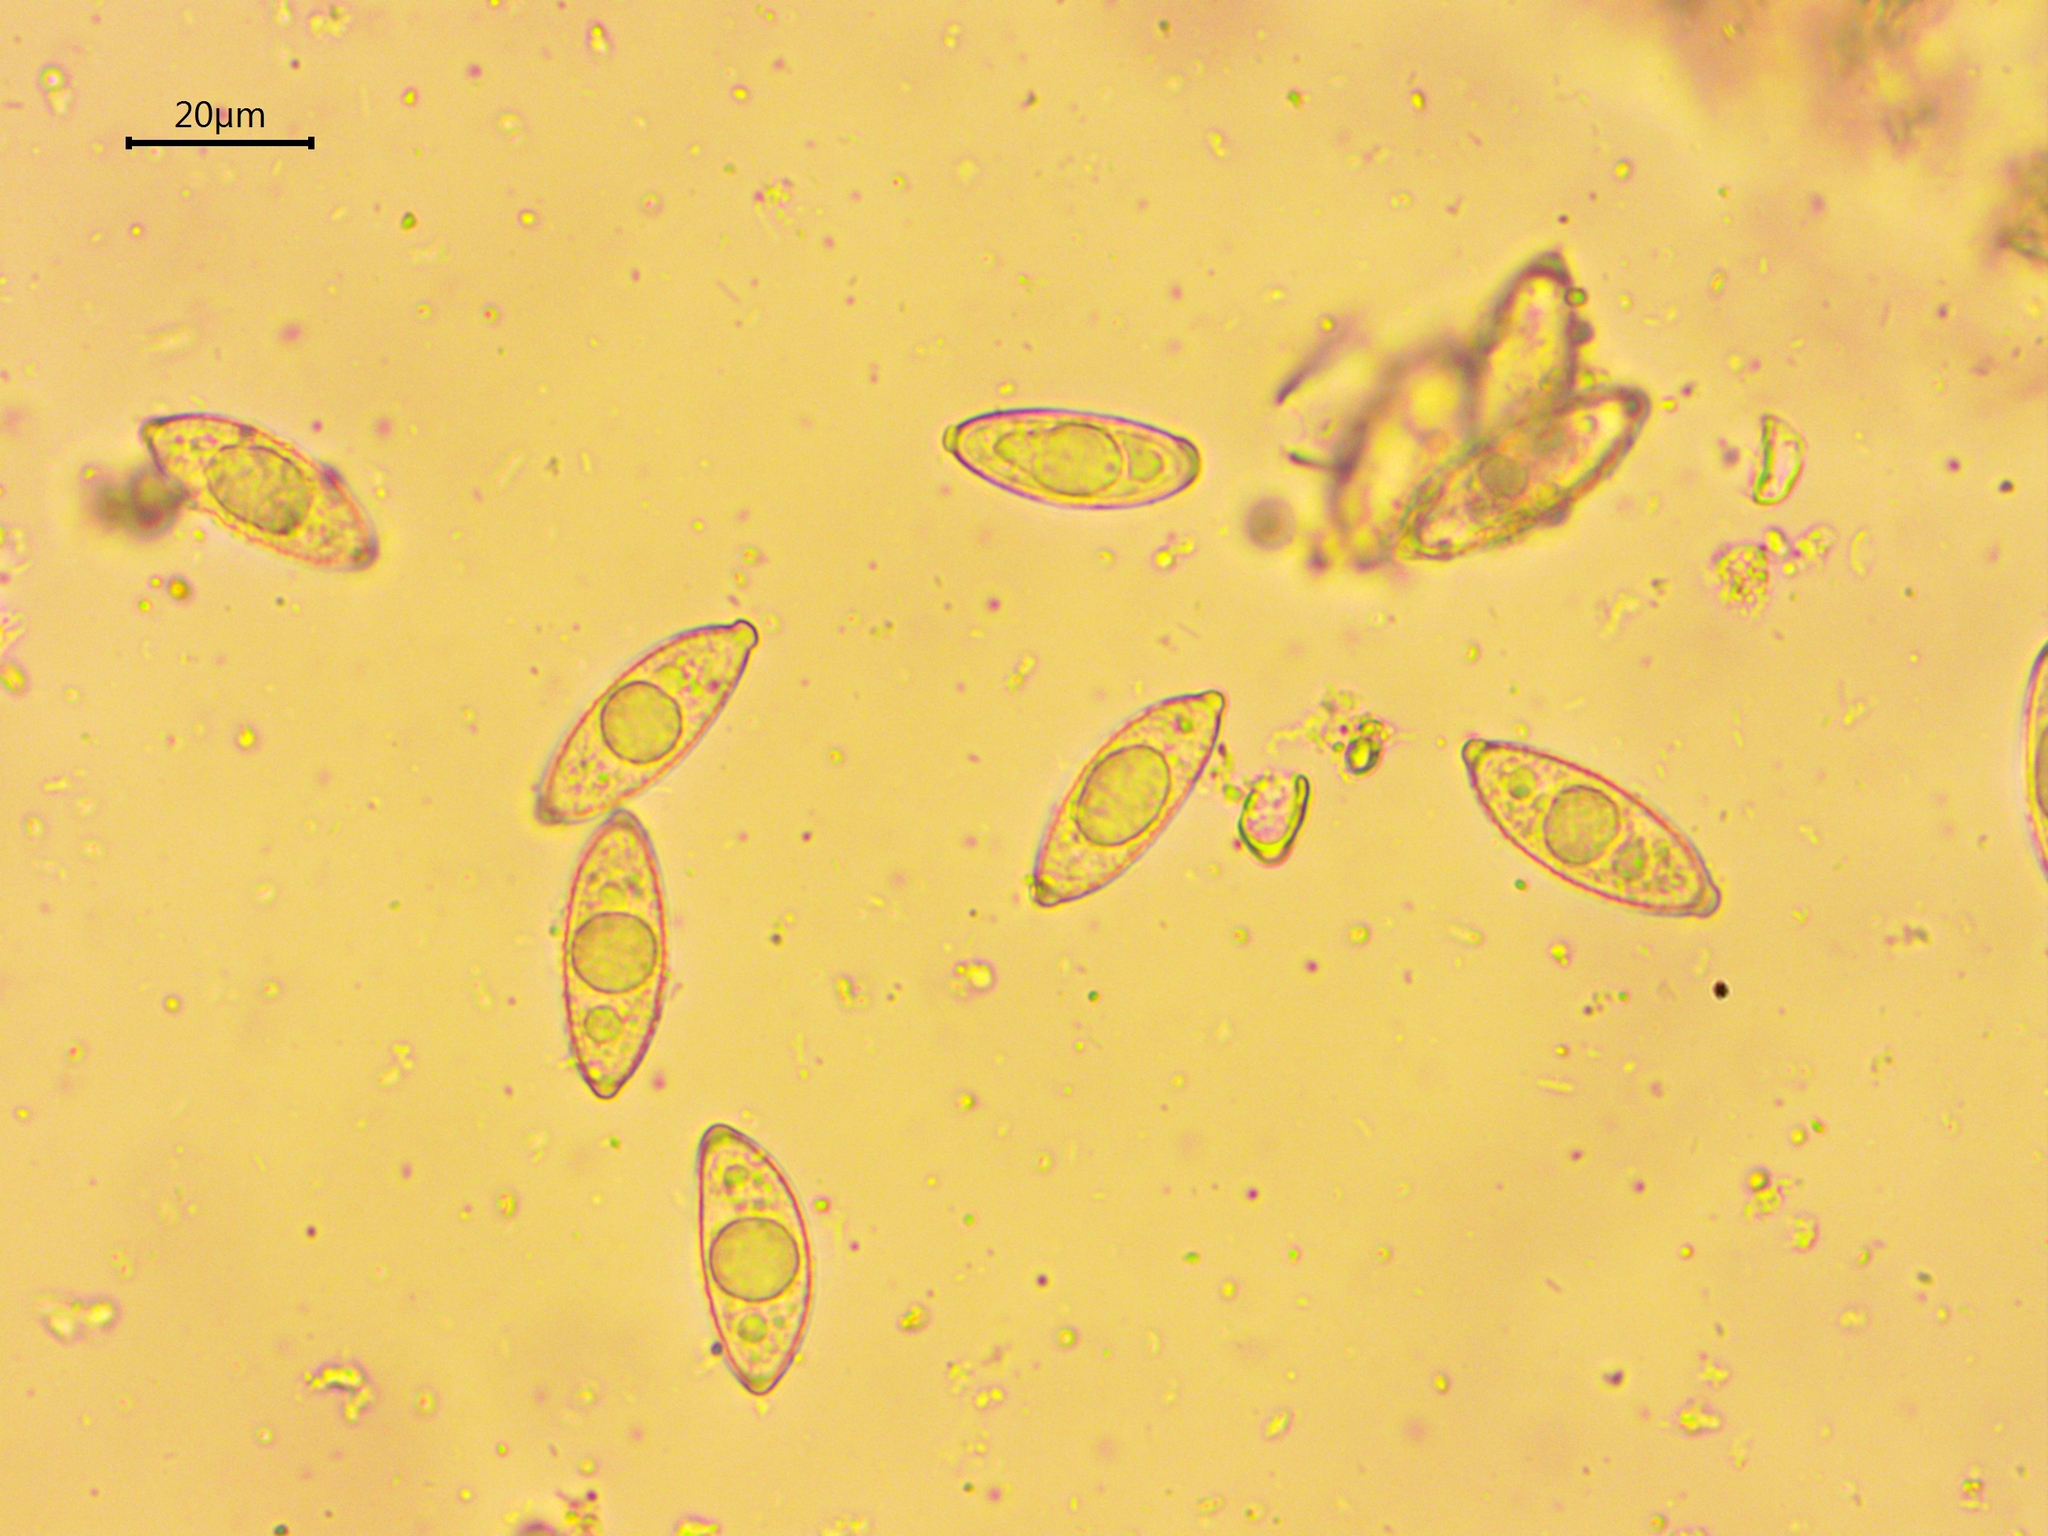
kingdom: Fungi
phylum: Ascomycota
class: Pezizomycetes
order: Pezizales
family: Discinaceae
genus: Gyromitra
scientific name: Gyromitra gigas
